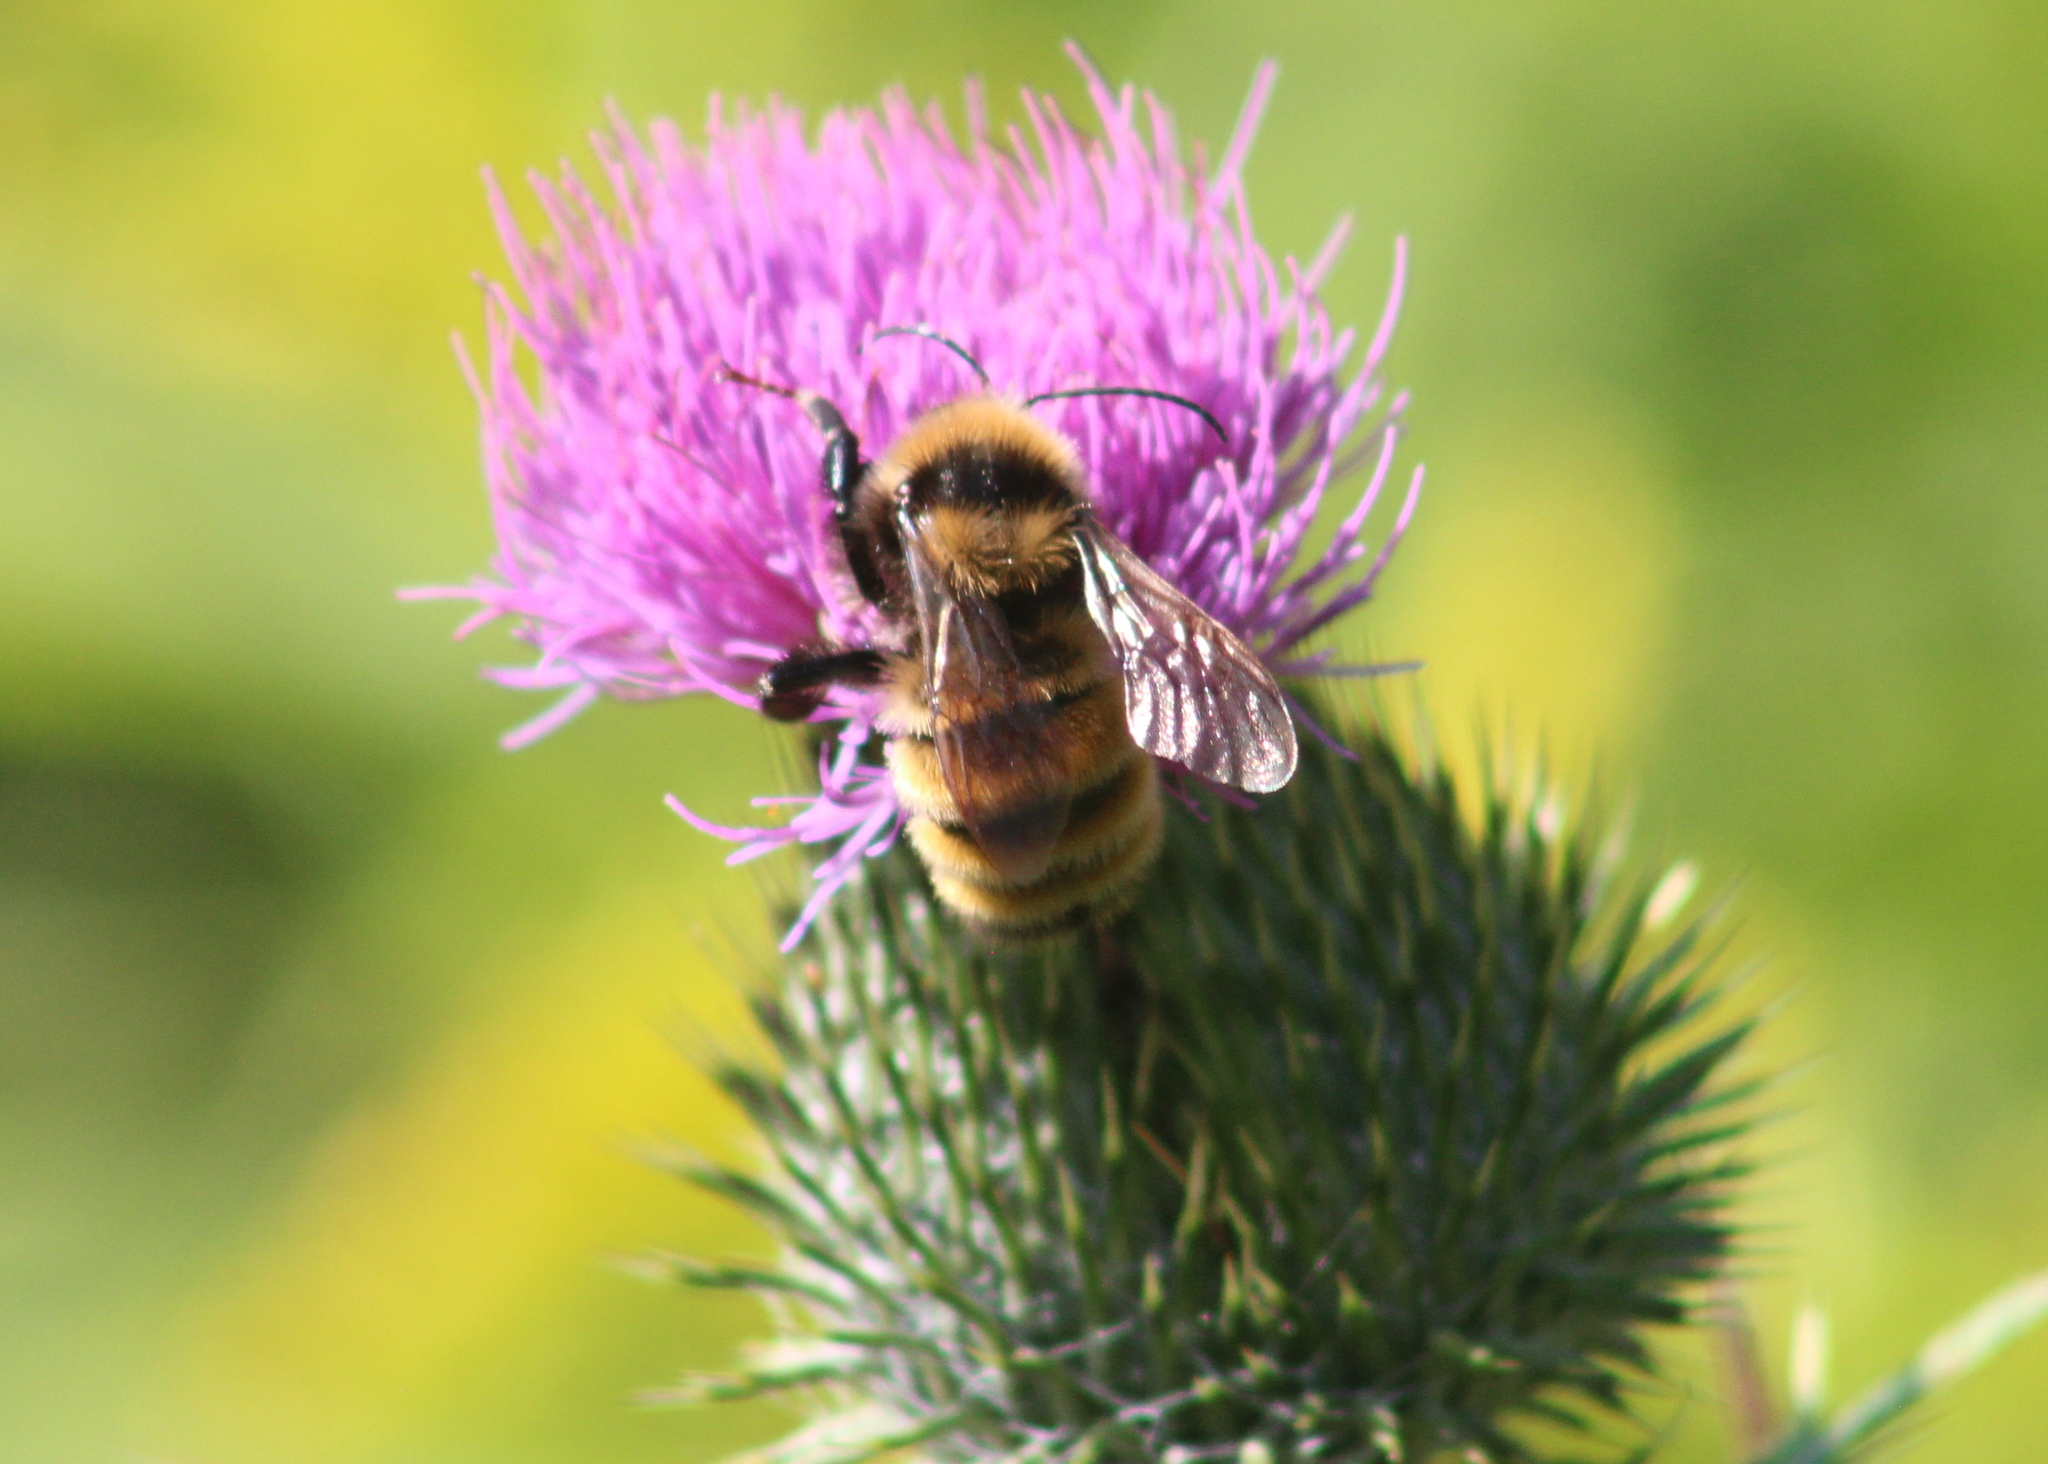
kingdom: Animalia
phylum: Arthropoda
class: Insecta
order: Hymenoptera
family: Apidae
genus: Bombus
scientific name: Bombus borealis
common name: Northern amber bumble bee
